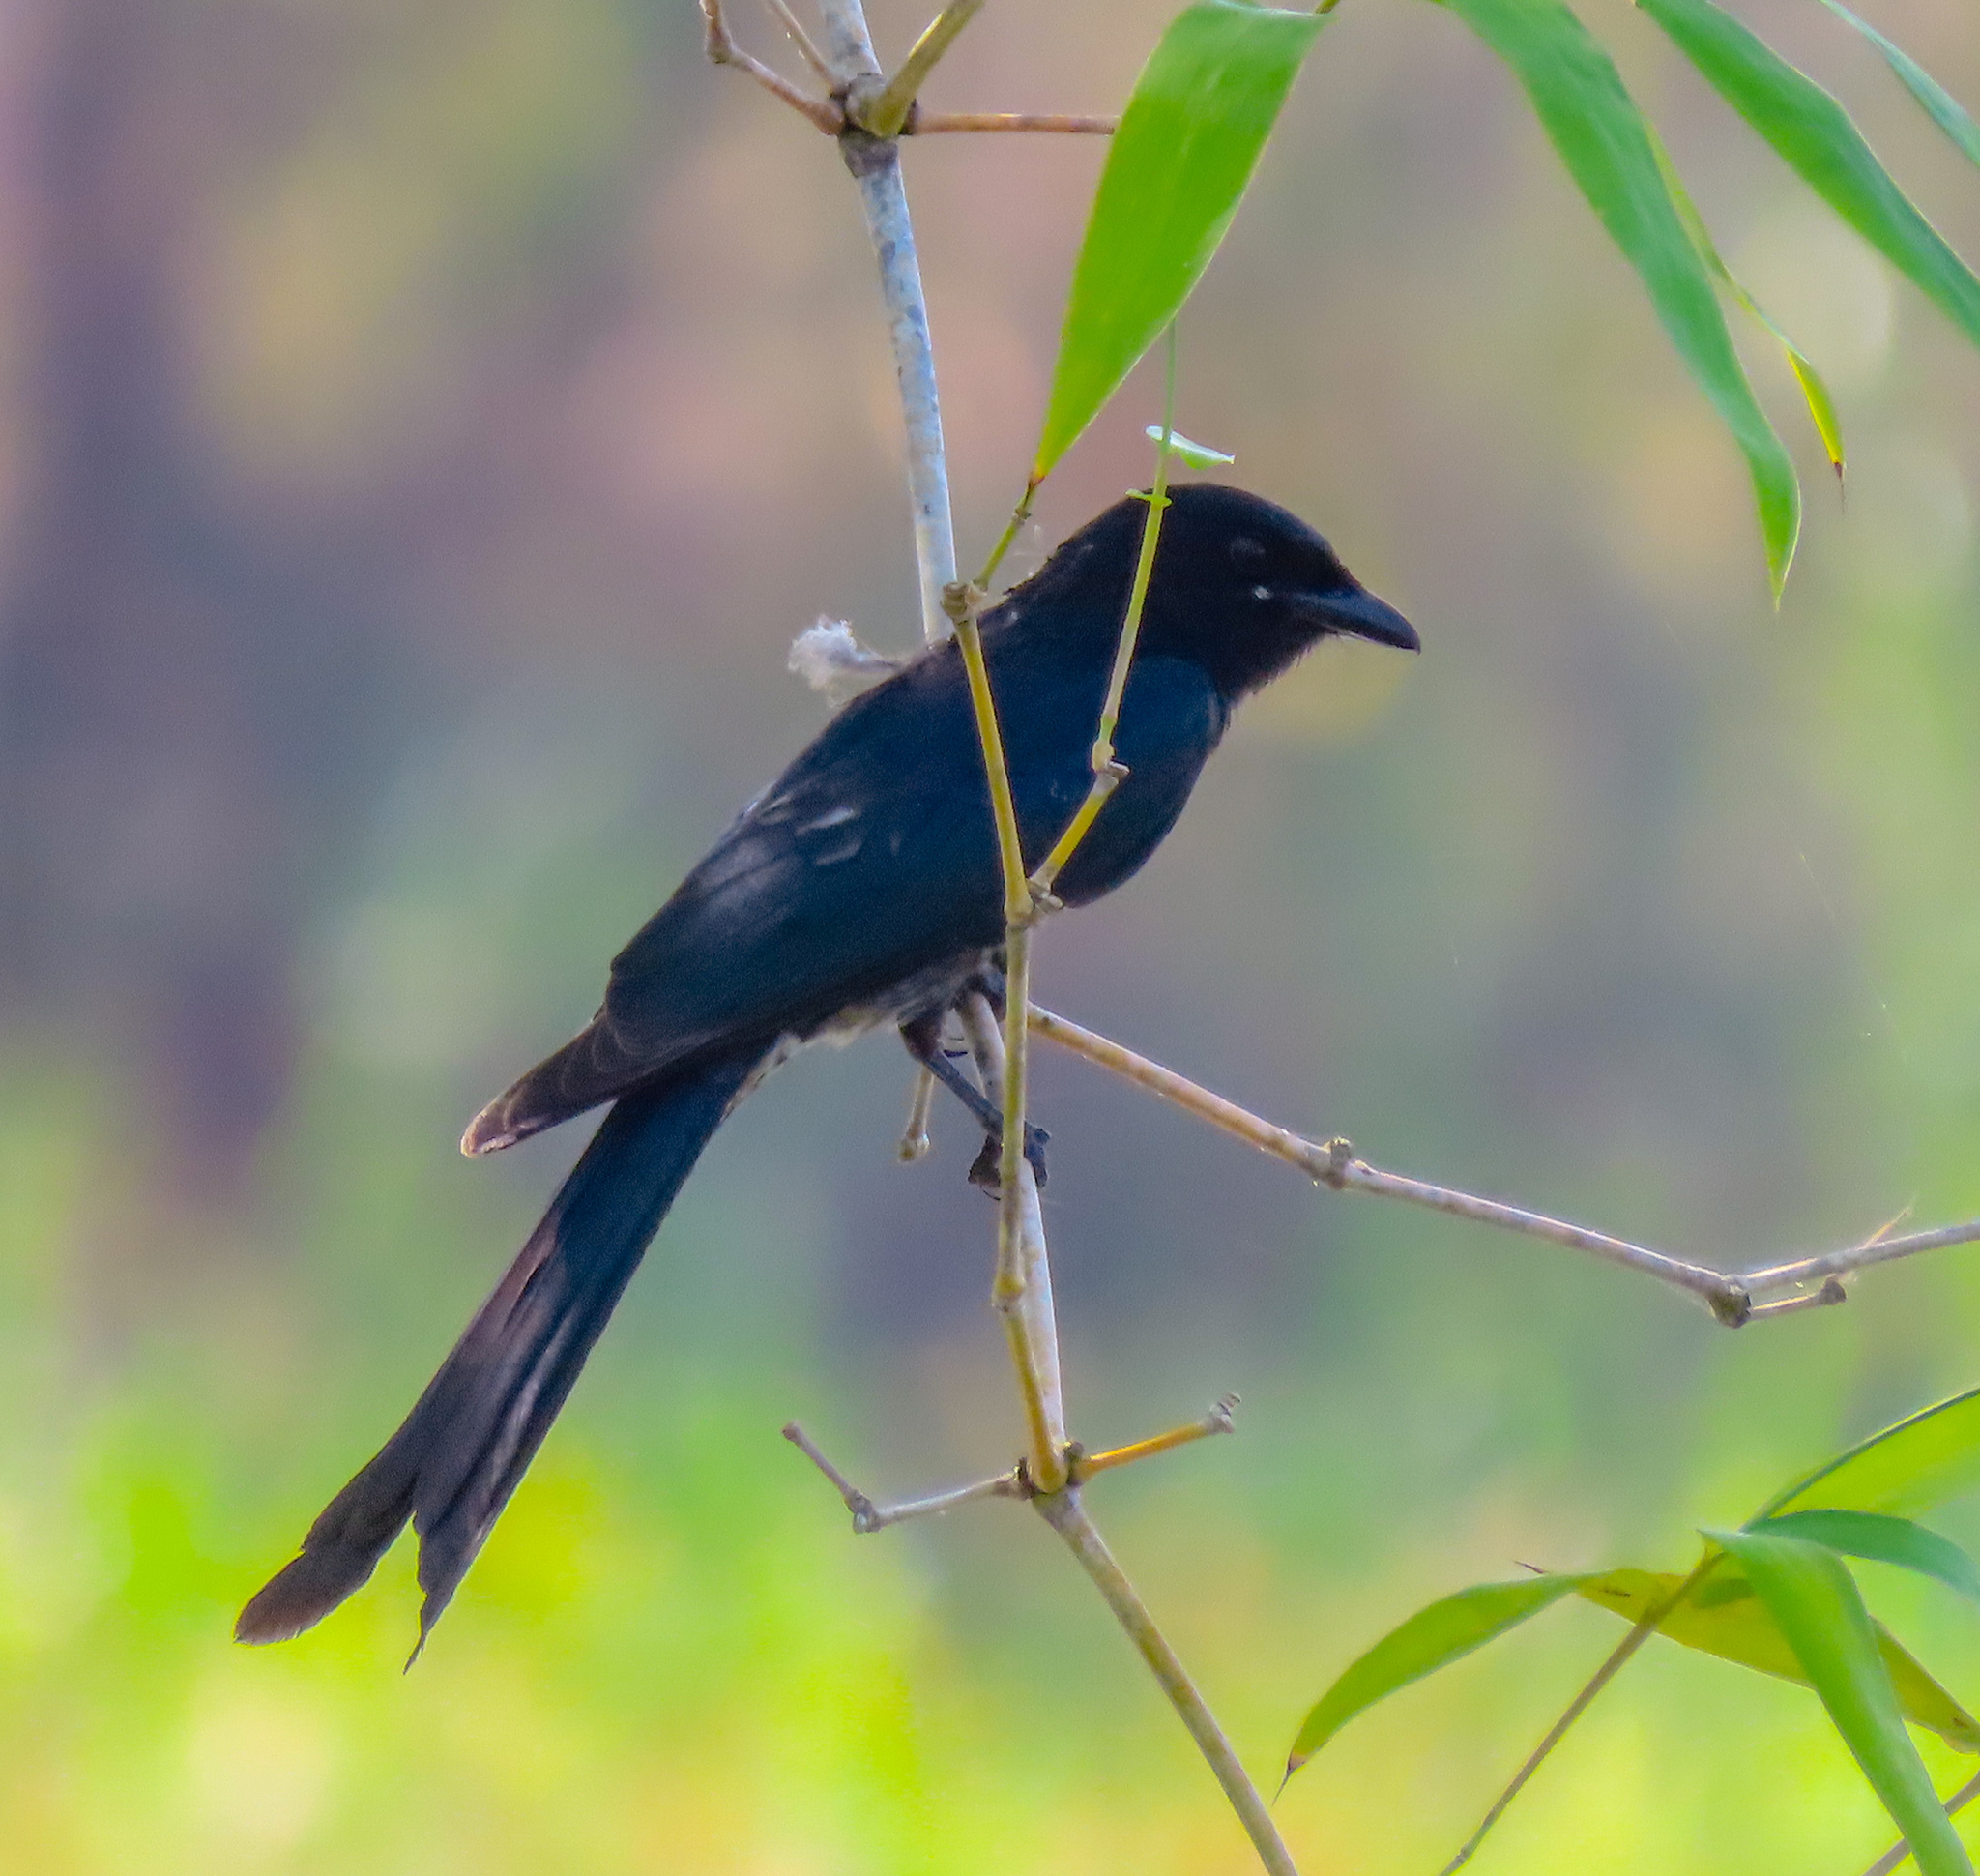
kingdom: Animalia
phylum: Chordata
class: Aves
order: Passeriformes
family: Dicruridae
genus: Dicrurus
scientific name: Dicrurus macrocercus
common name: Black drongo
